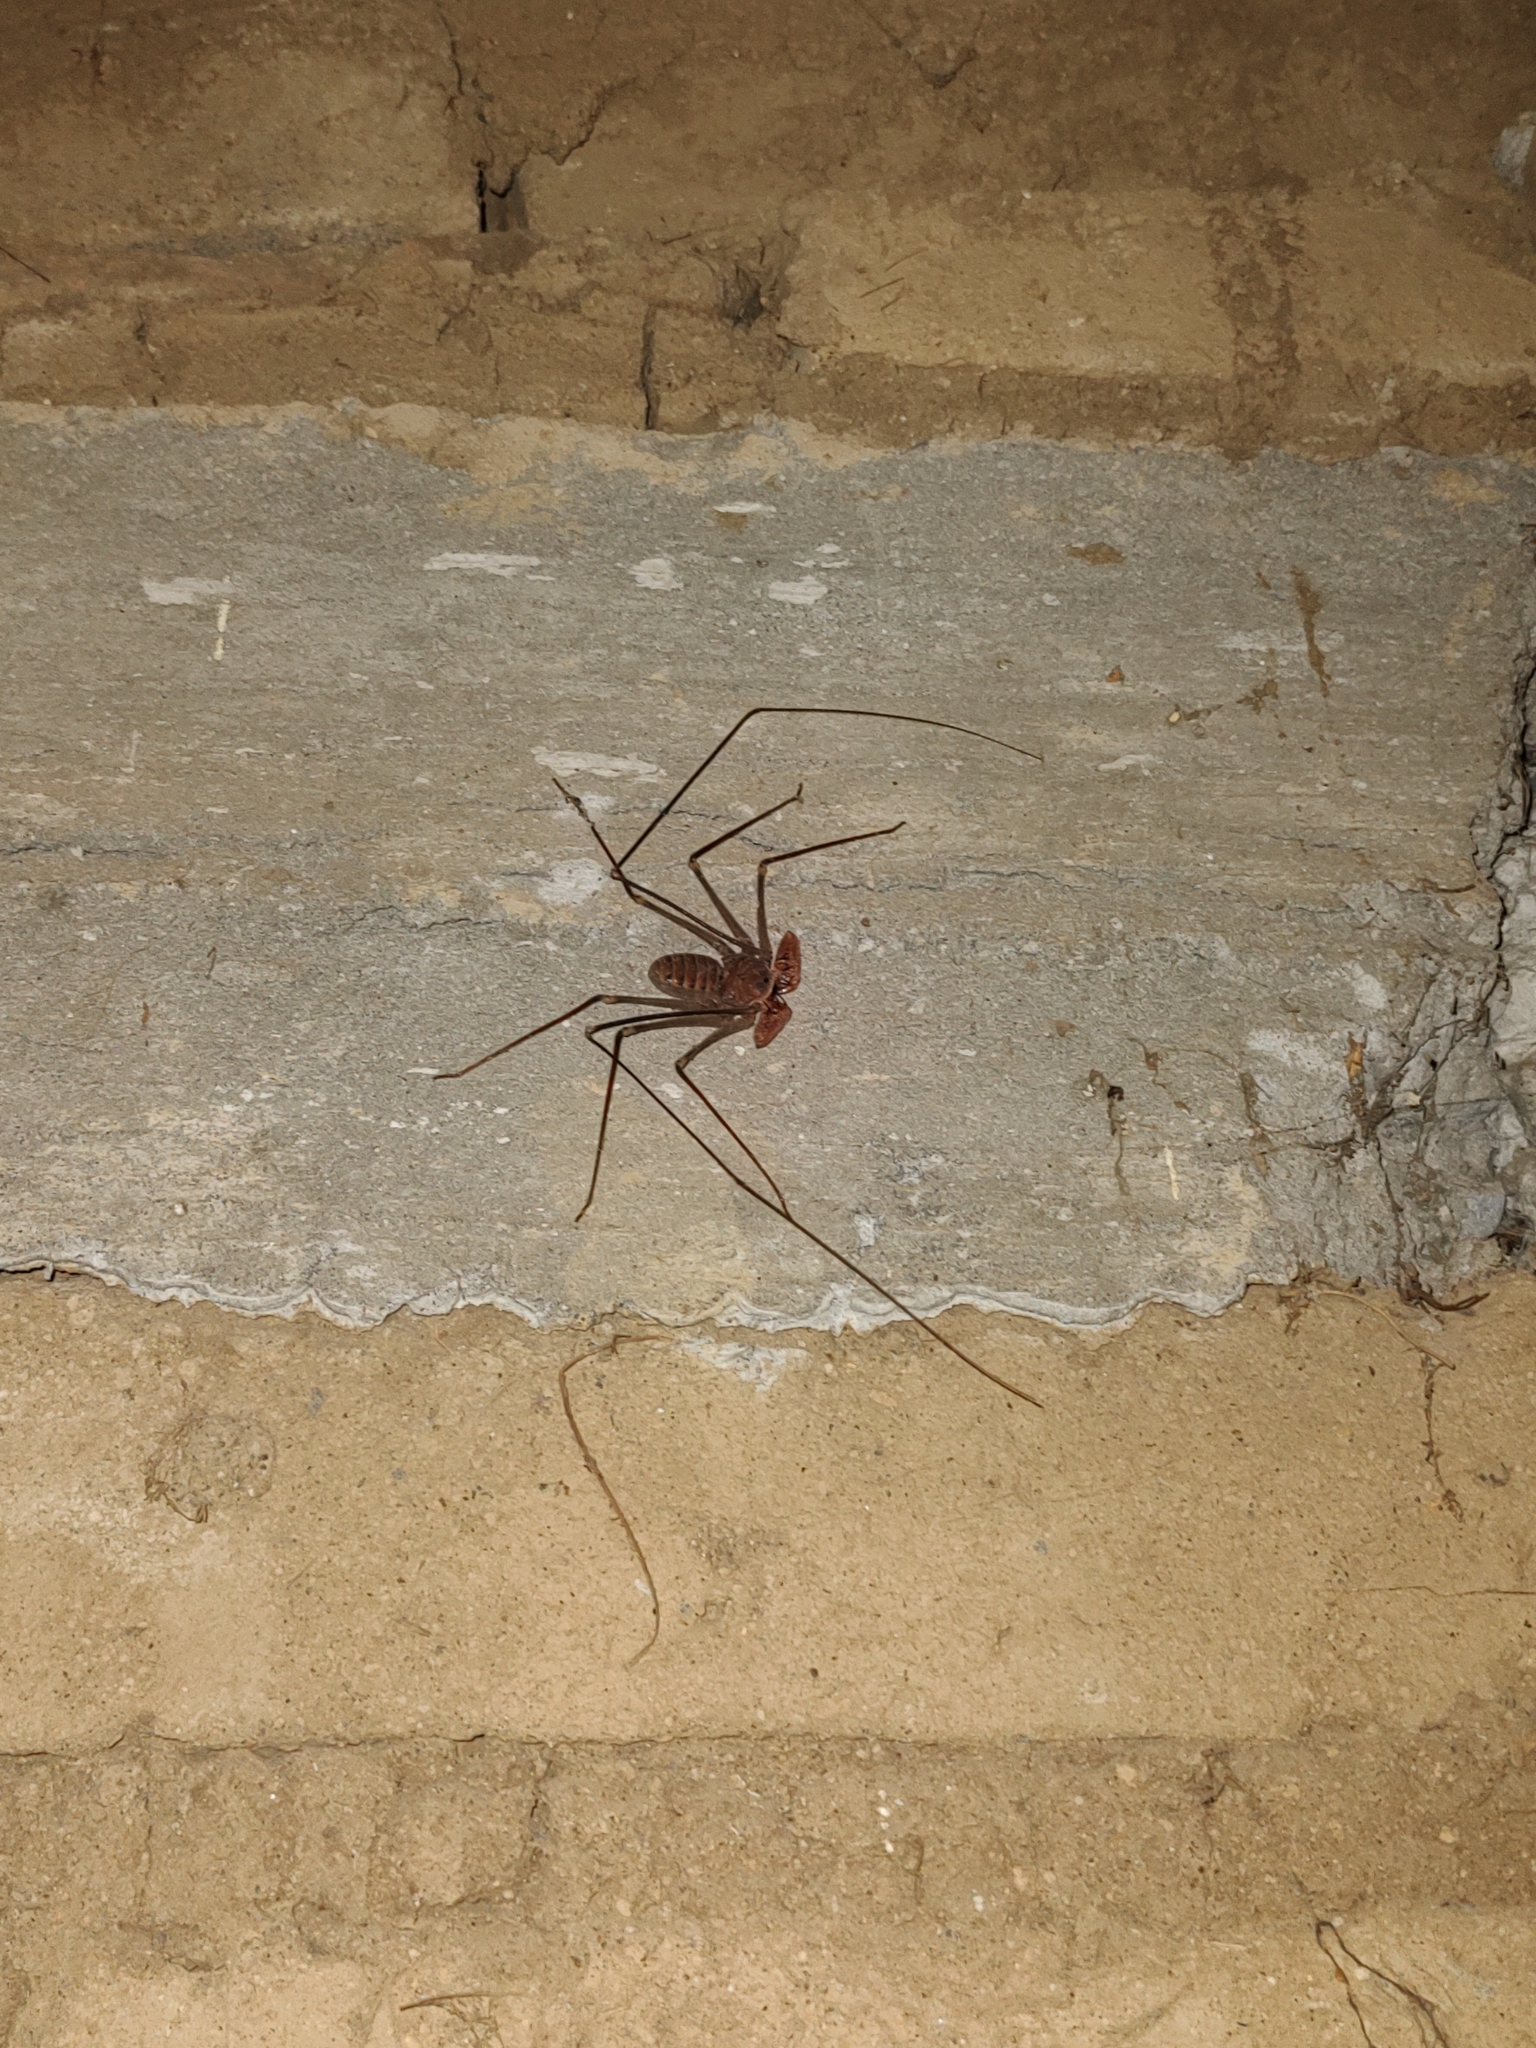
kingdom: Animalia
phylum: Arthropoda
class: Arachnida
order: Amblypygi
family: Phrynidae
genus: Acanthophrynus
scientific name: Acanthophrynus coronatus
